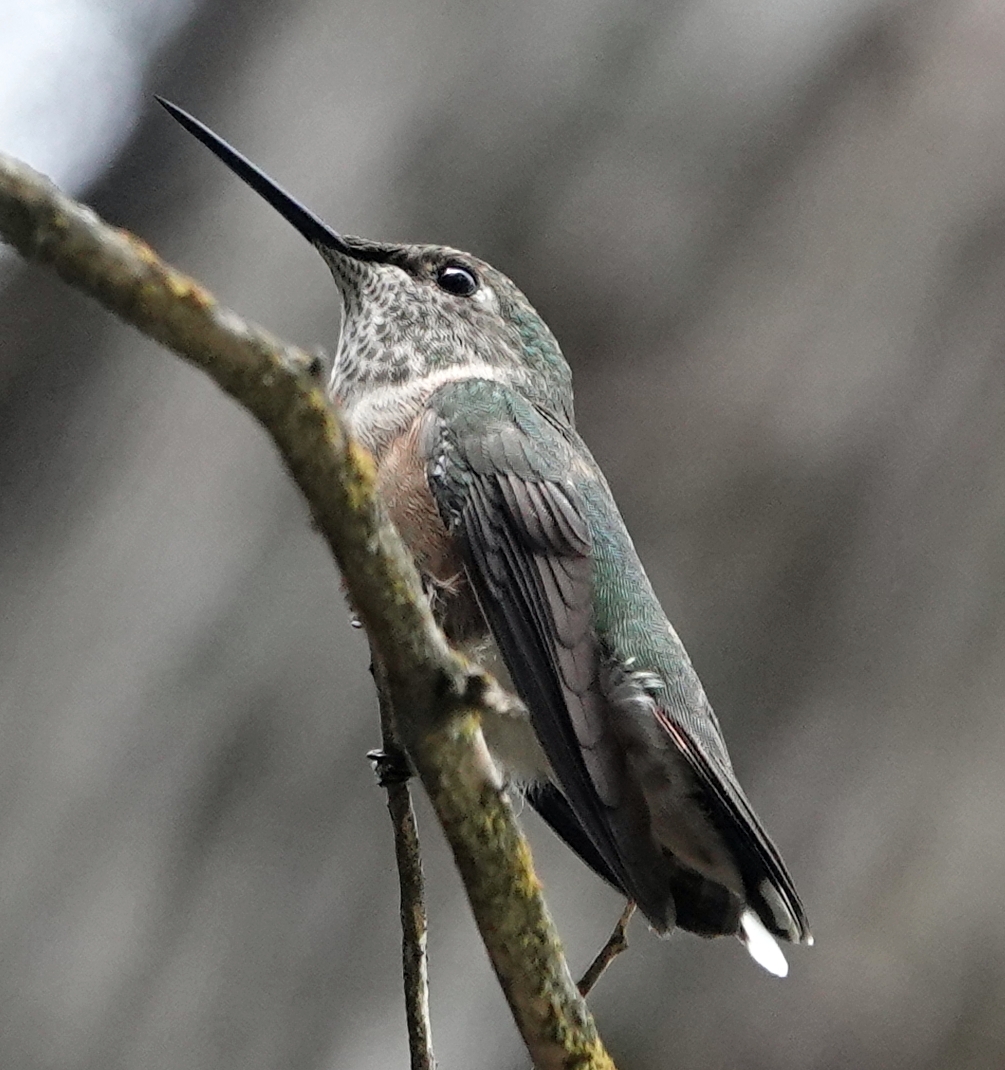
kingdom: Animalia
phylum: Chordata
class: Aves
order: Apodiformes
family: Trochilidae
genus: Selasphorus
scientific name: Selasphorus platycercus
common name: Broad-tailed hummingbird
